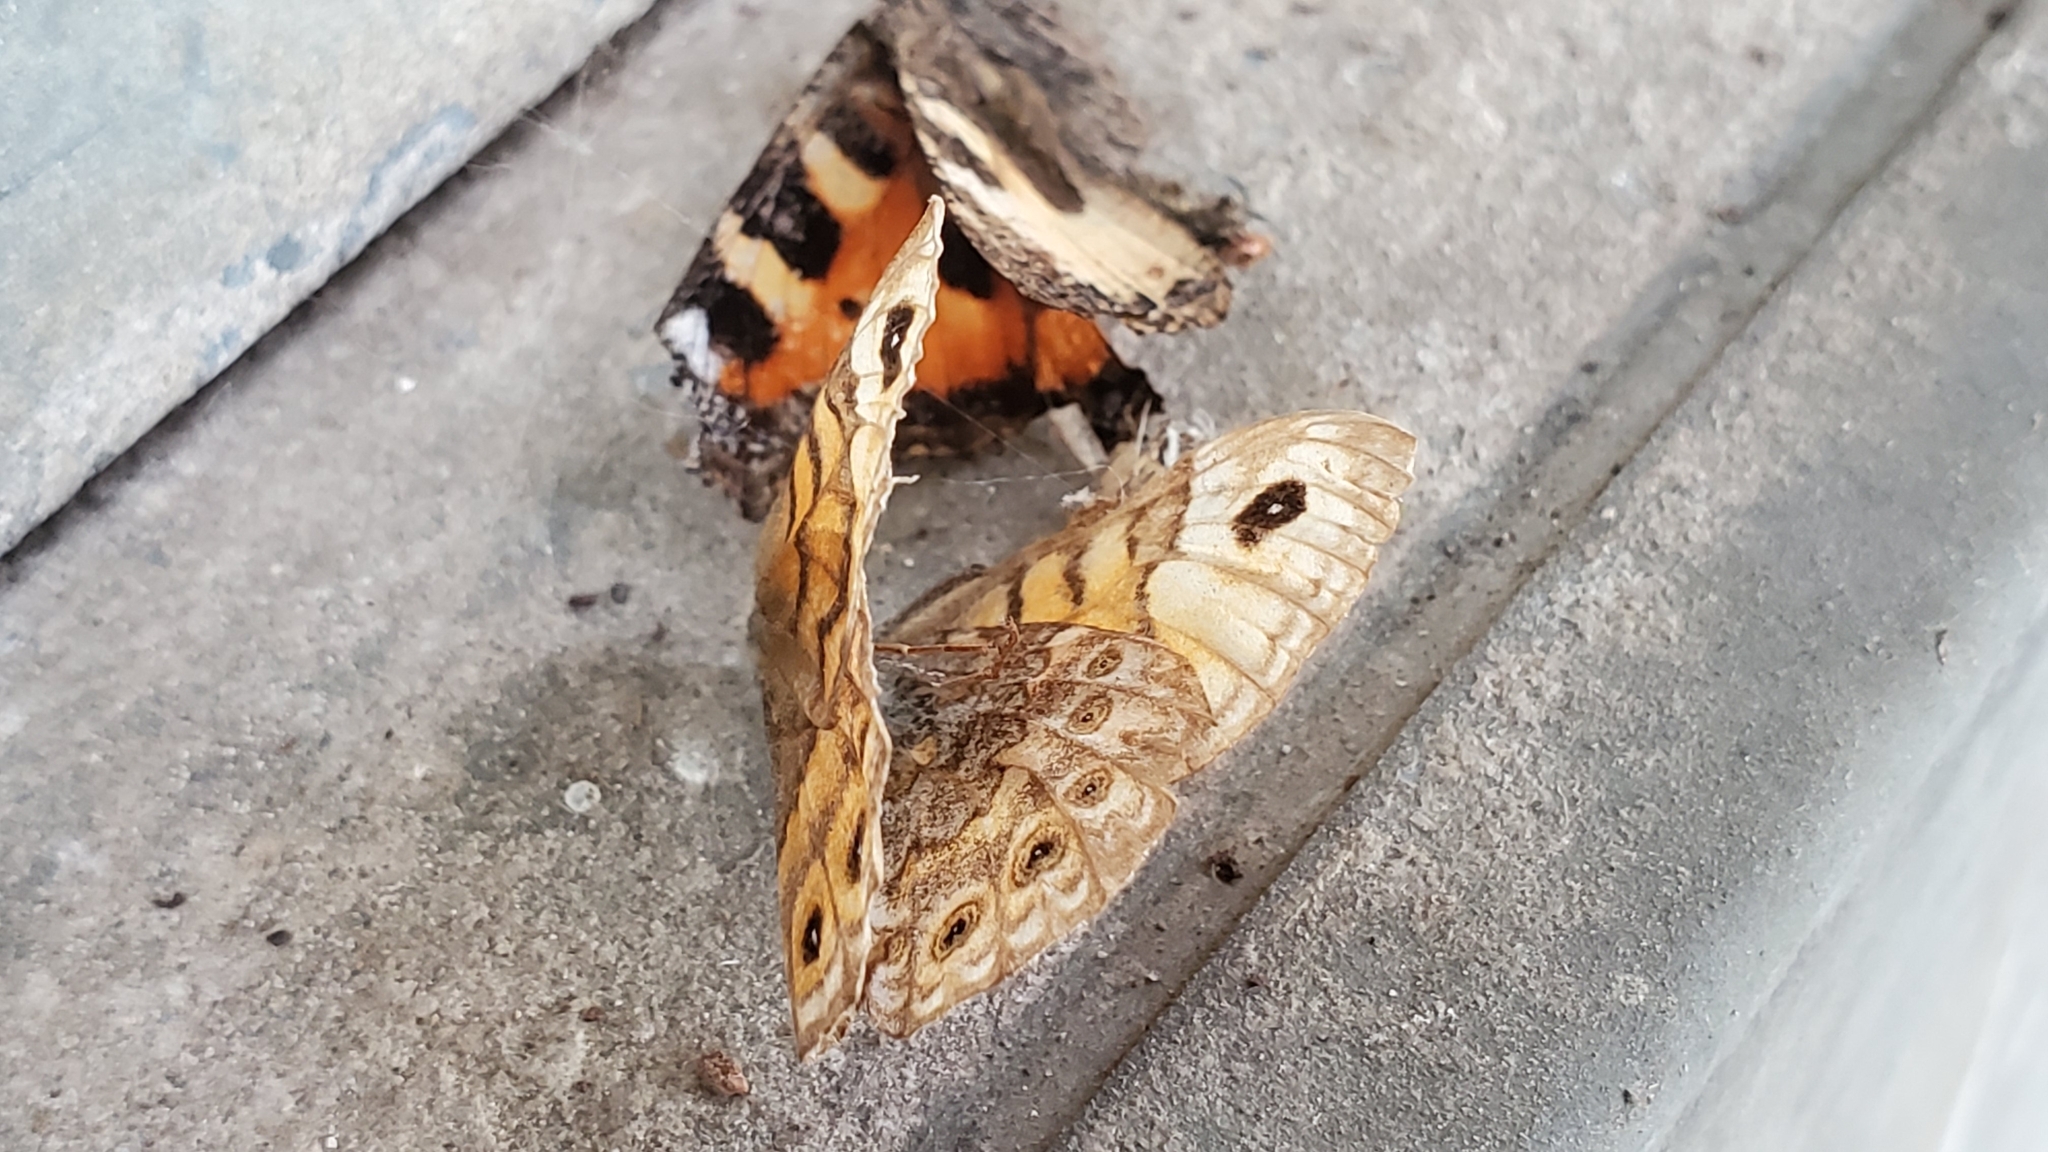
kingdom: Animalia
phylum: Arthropoda
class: Insecta
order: Lepidoptera
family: Nymphalidae
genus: Pararge
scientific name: Pararge Lasiommata megera
